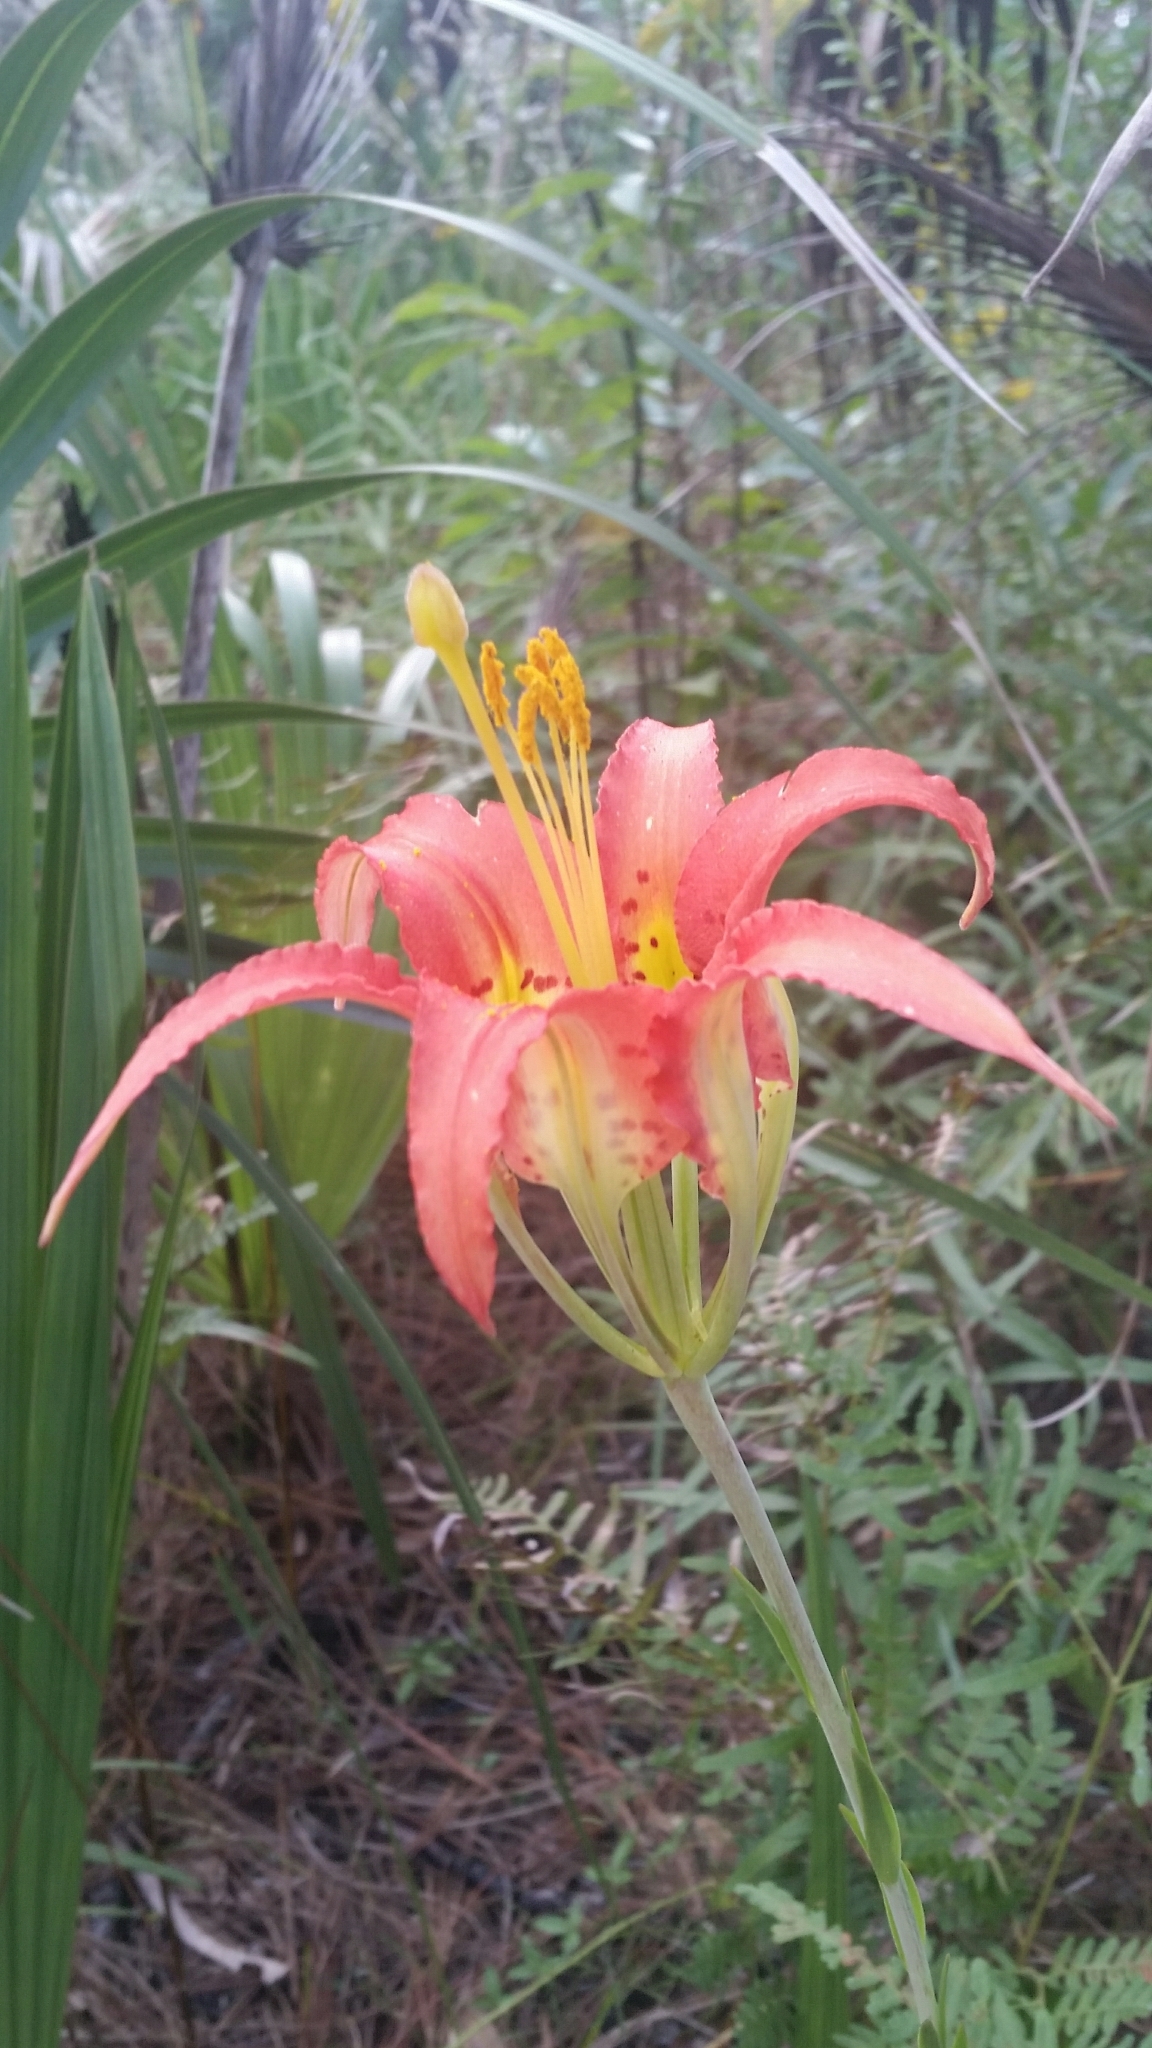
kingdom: Plantae
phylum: Tracheophyta
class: Liliopsida
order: Liliales
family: Liliaceae
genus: Lilium
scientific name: Lilium catesbaei
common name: Catesby's lily
